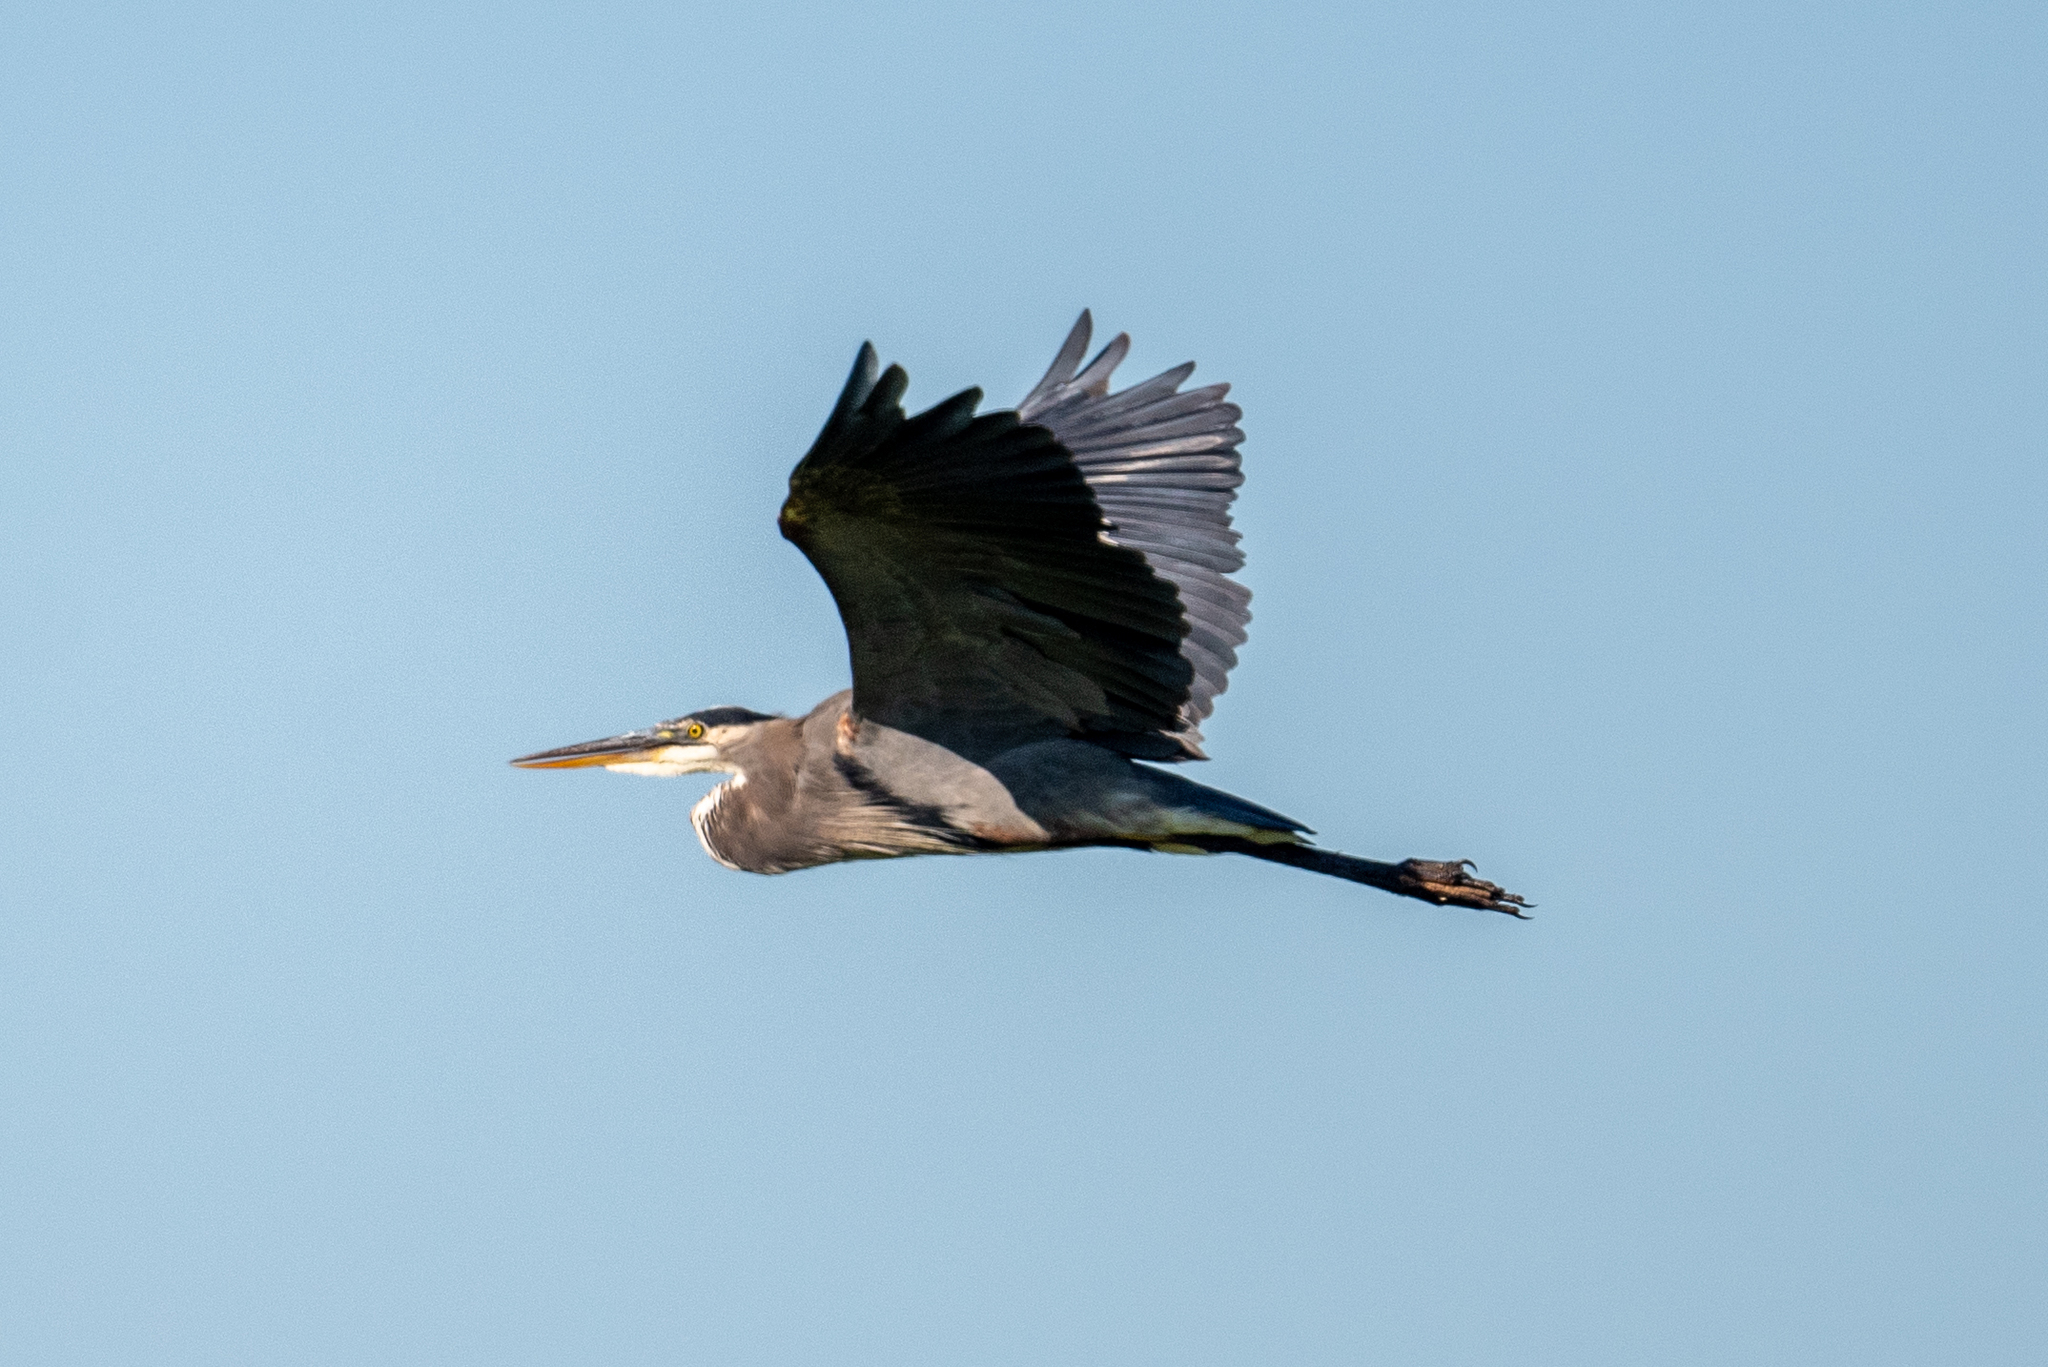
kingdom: Animalia
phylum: Chordata
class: Aves
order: Pelecaniformes
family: Ardeidae
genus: Ardea
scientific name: Ardea herodias
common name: Great blue heron
